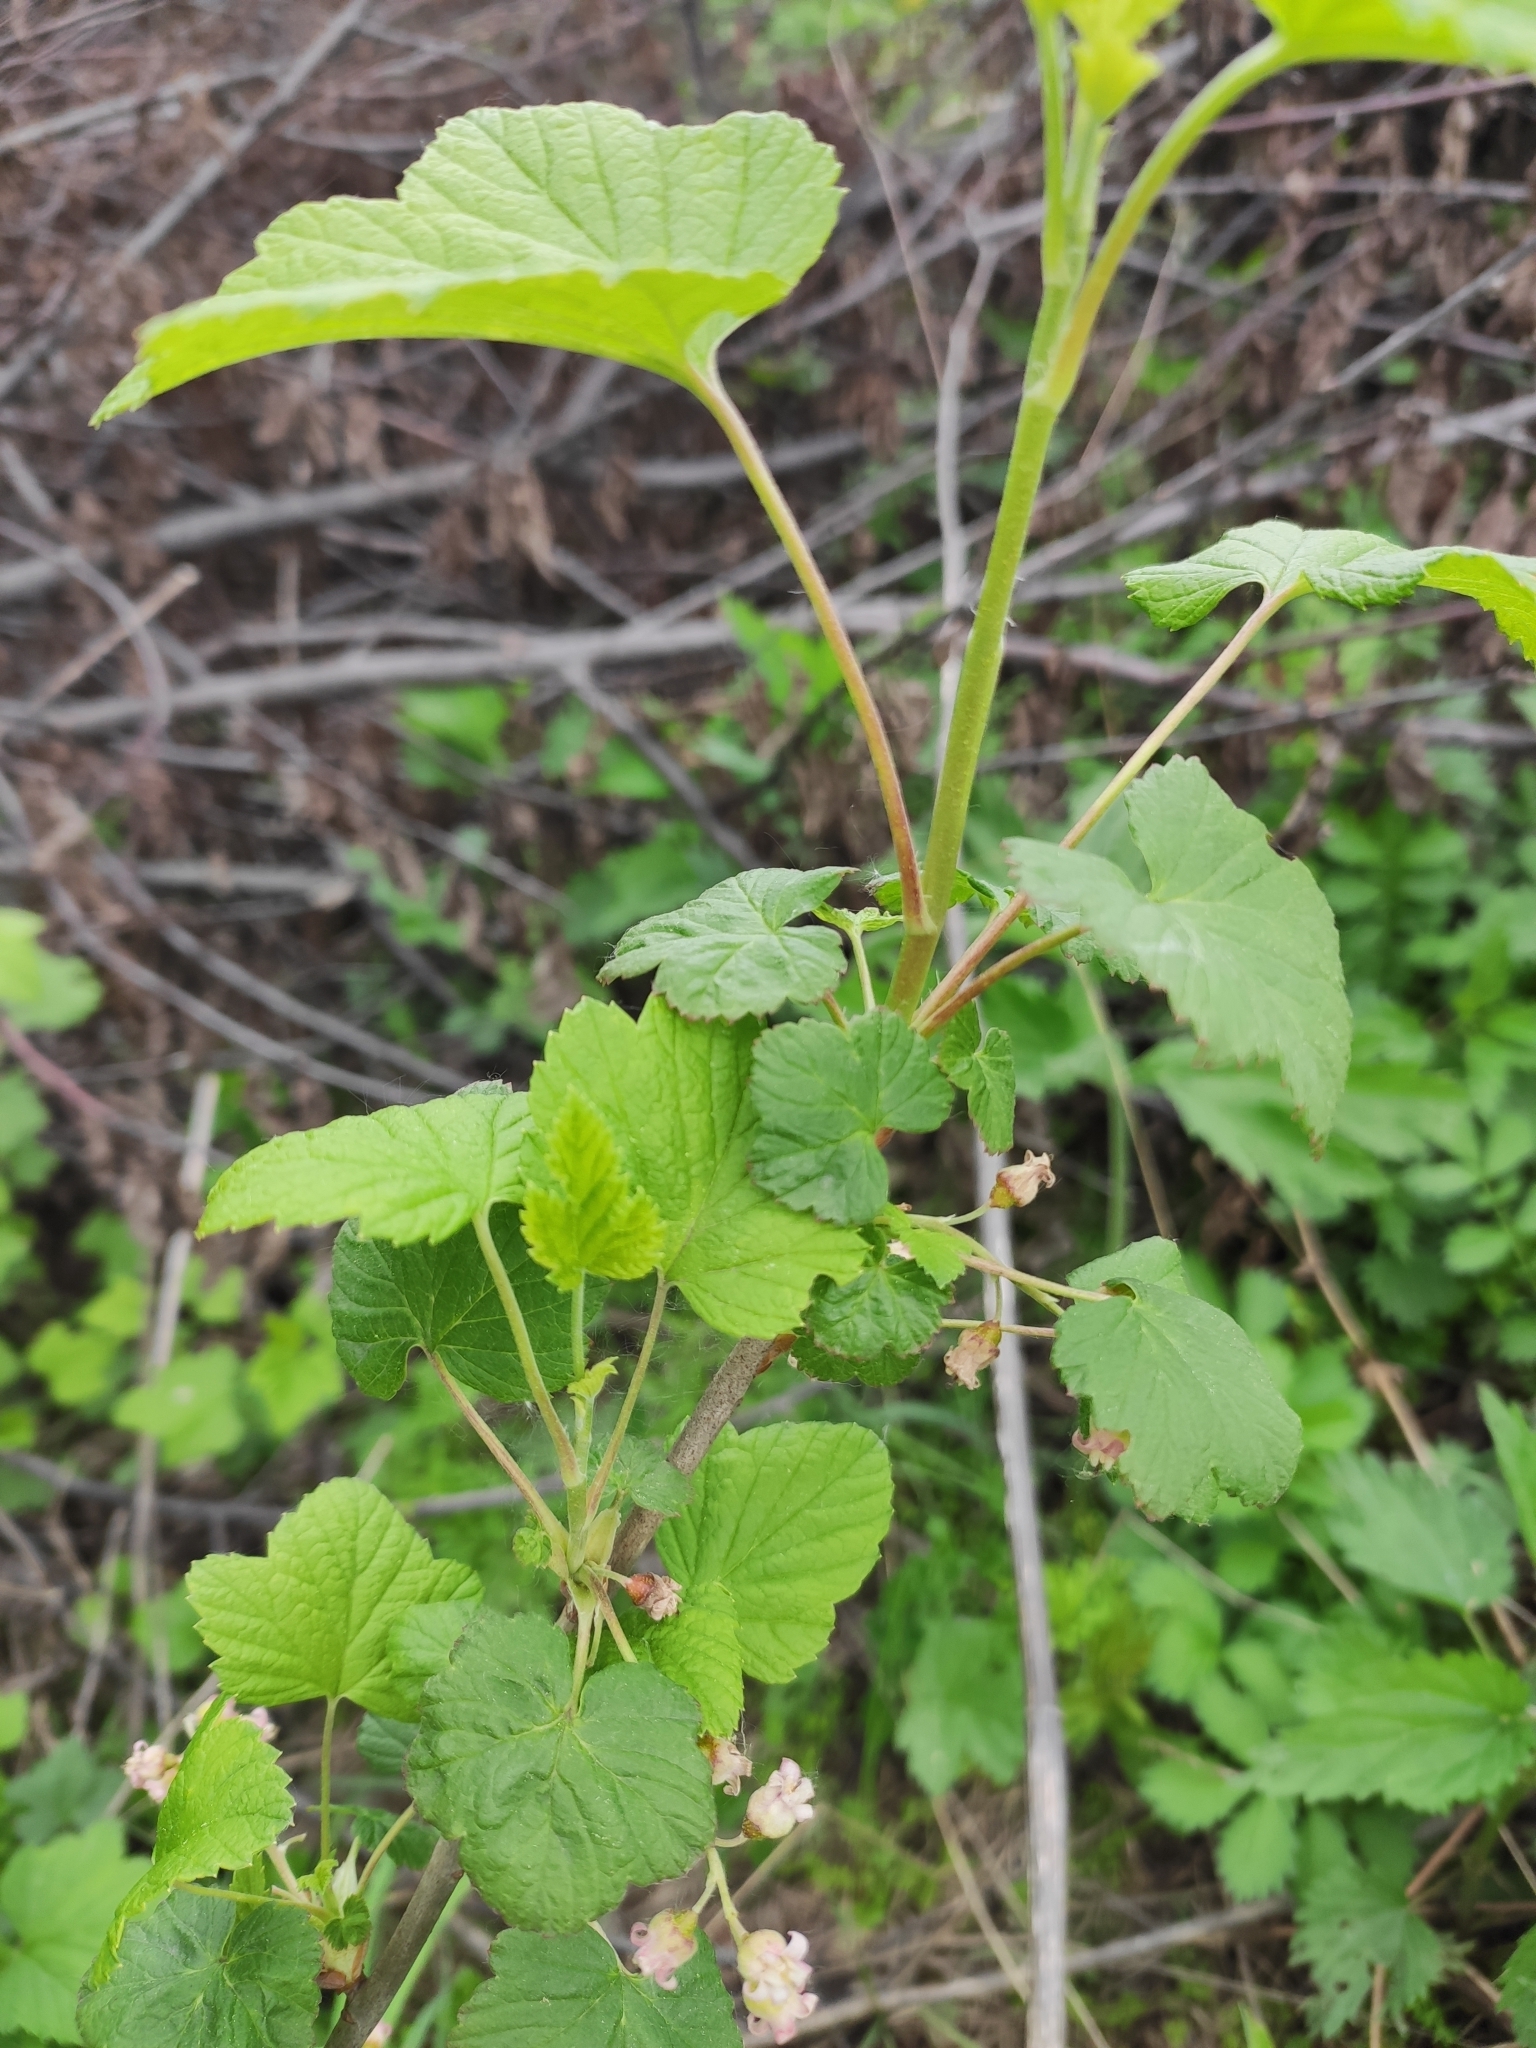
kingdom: Plantae
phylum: Tracheophyta
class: Magnoliopsida
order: Saxifragales
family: Grossulariaceae
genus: Ribes
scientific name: Ribes nigrum
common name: Black currant
